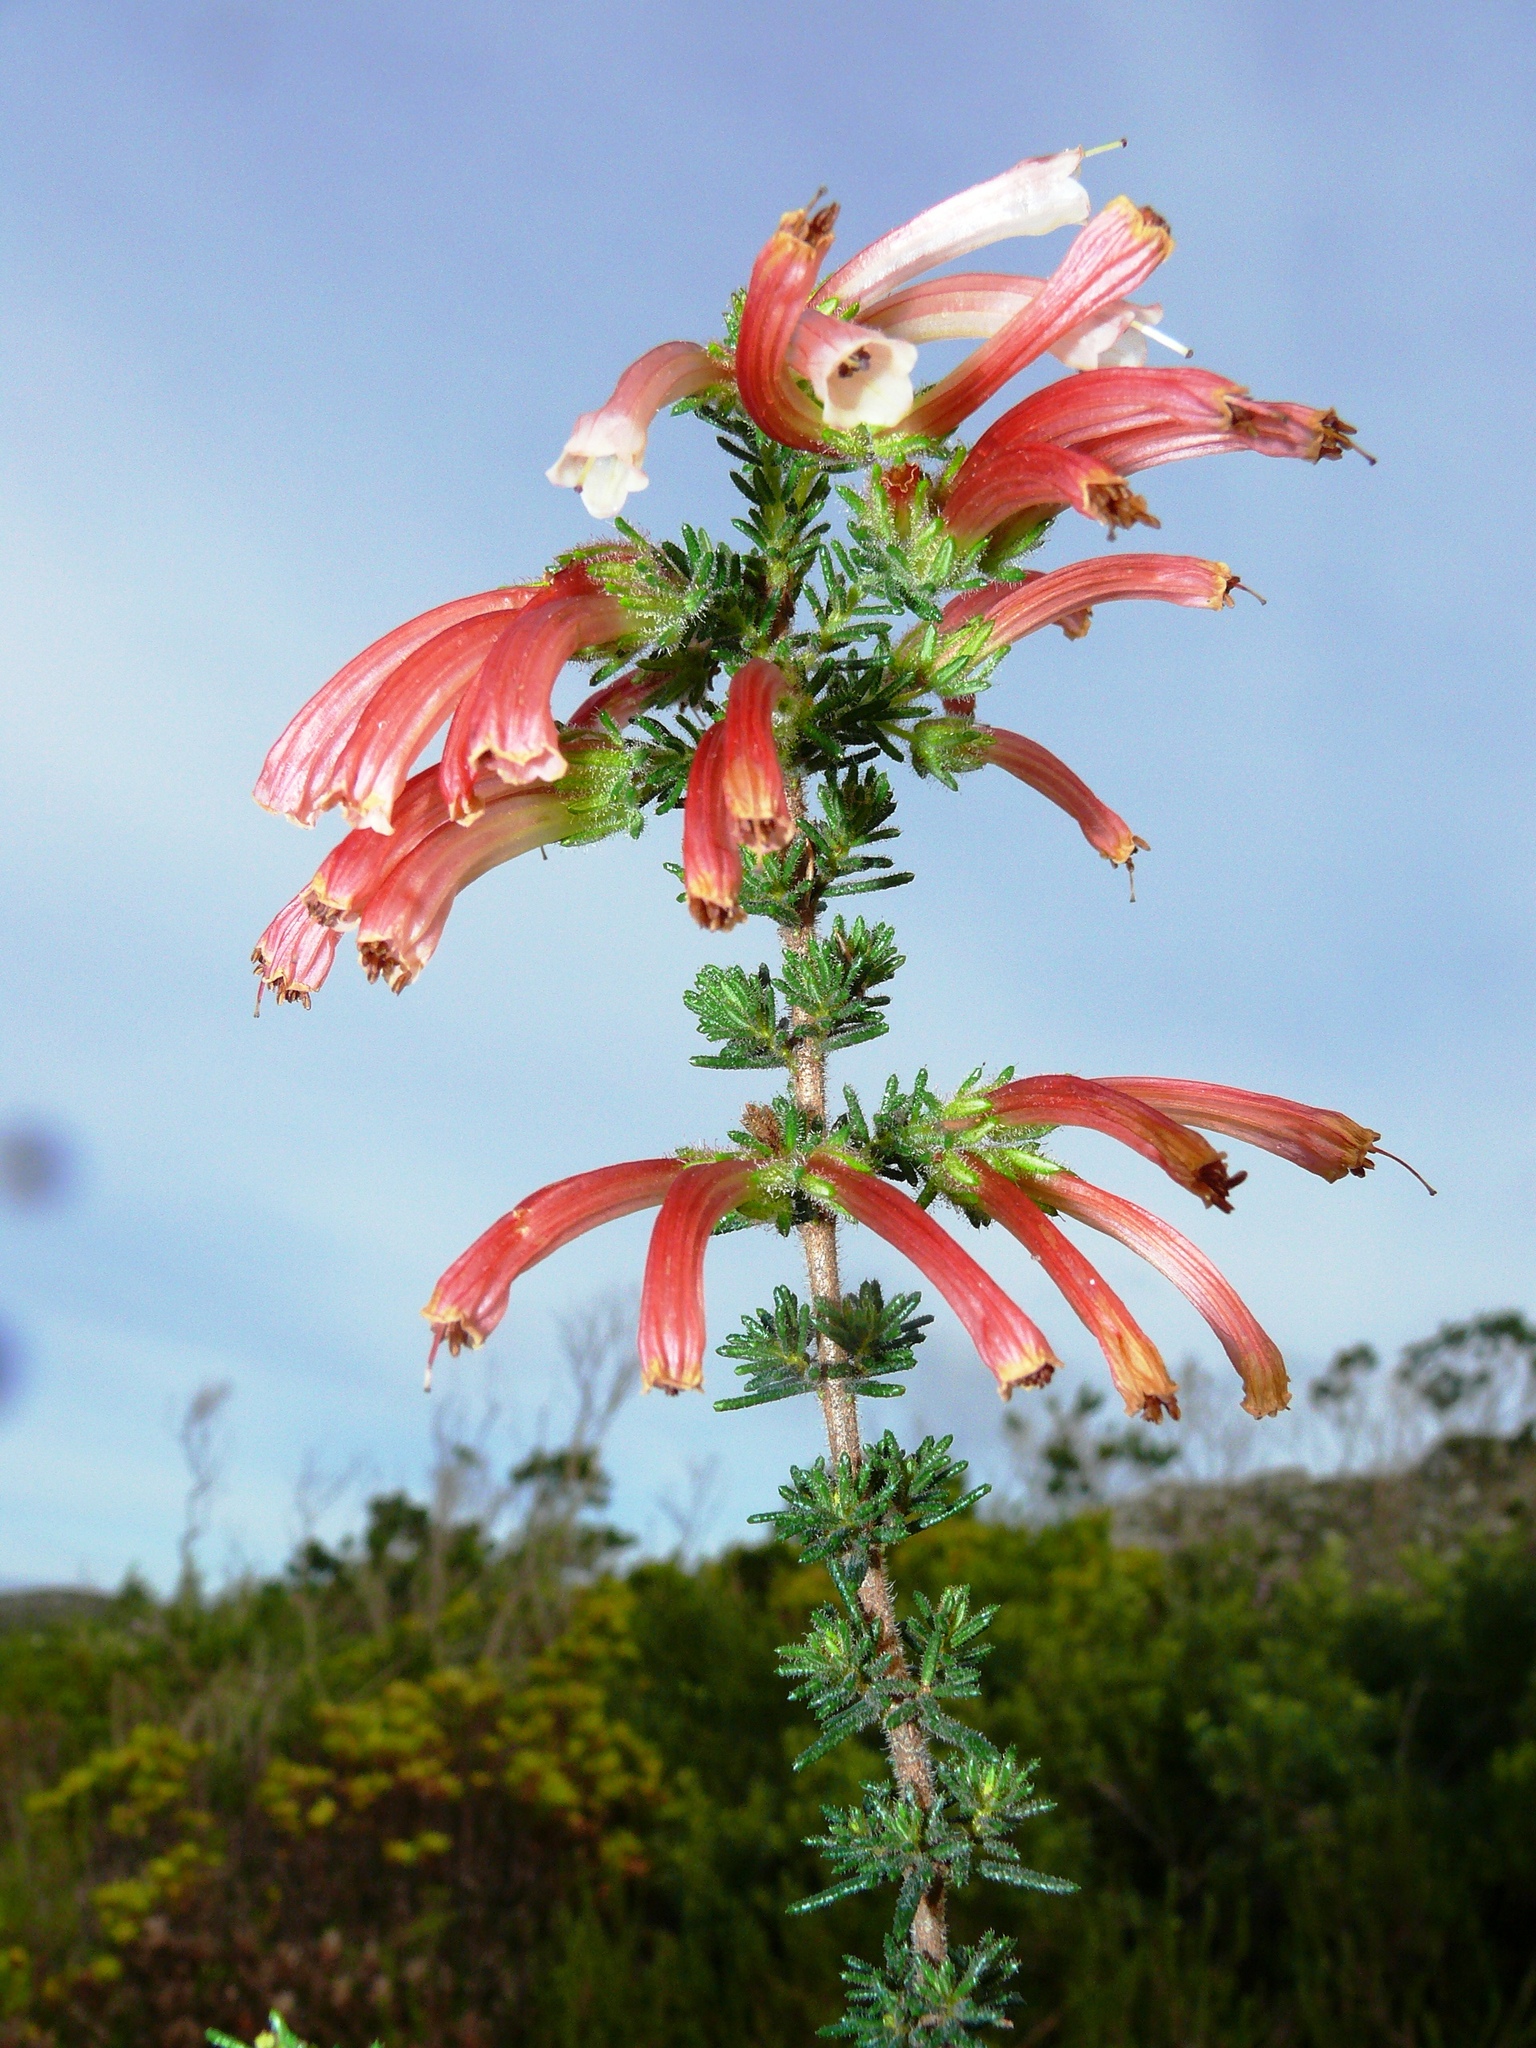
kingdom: Plantae
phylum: Tracheophyta
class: Magnoliopsida
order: Ericales
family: Ericaceae
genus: Erica
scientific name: Erica glandulosa
